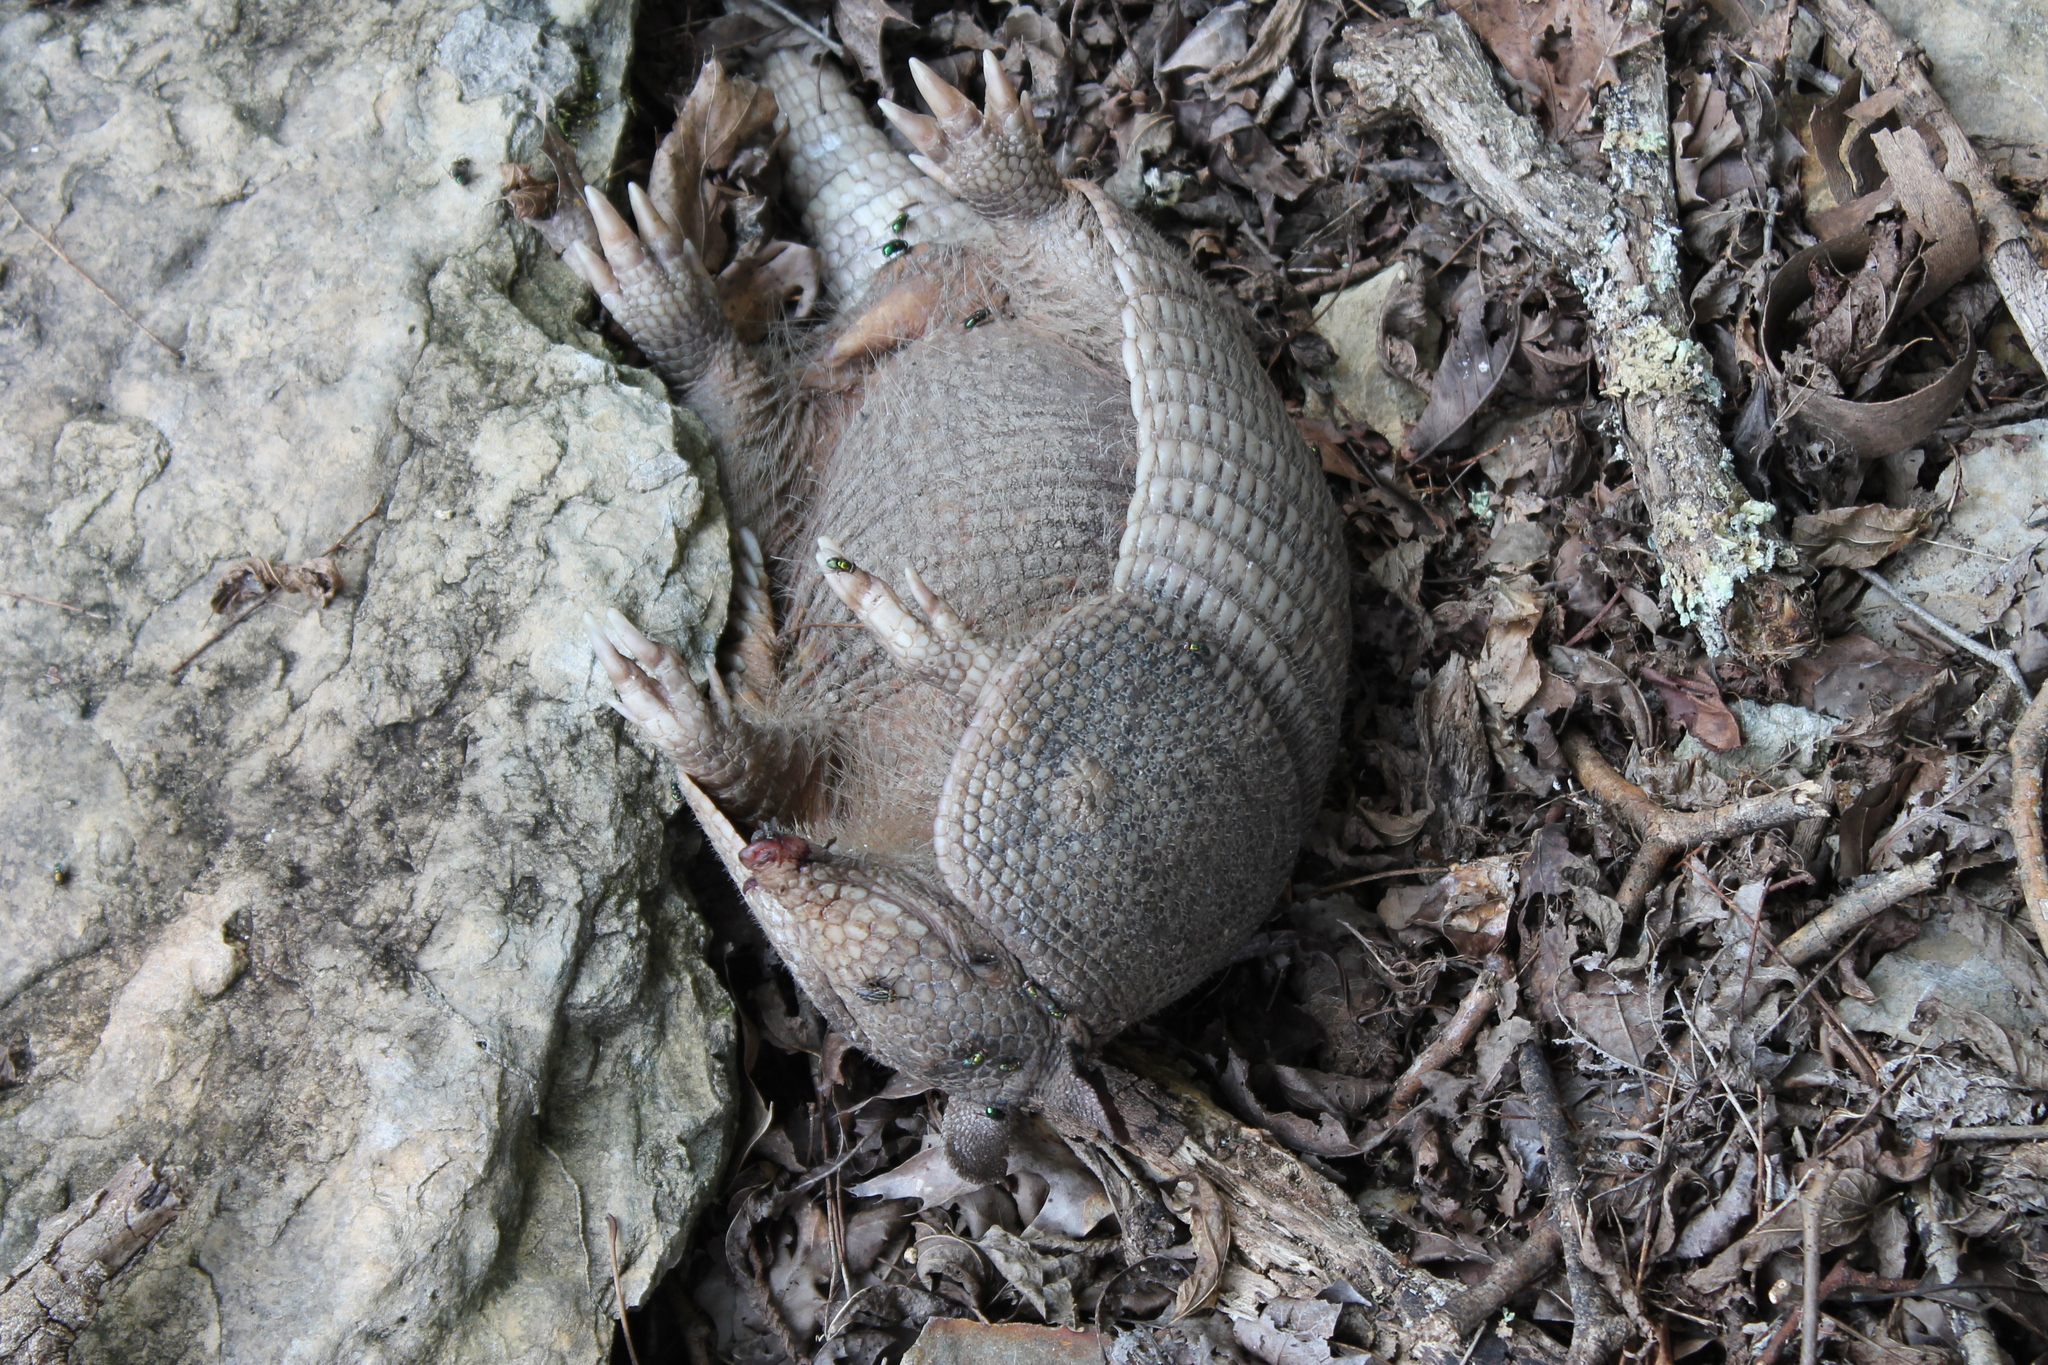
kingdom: Animalia
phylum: Chordata
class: Mammalia
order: Cingulata
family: Dasypodidae
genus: Dasypus
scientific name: Dasypus novemcinctus
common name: Nine-banded armadillo
